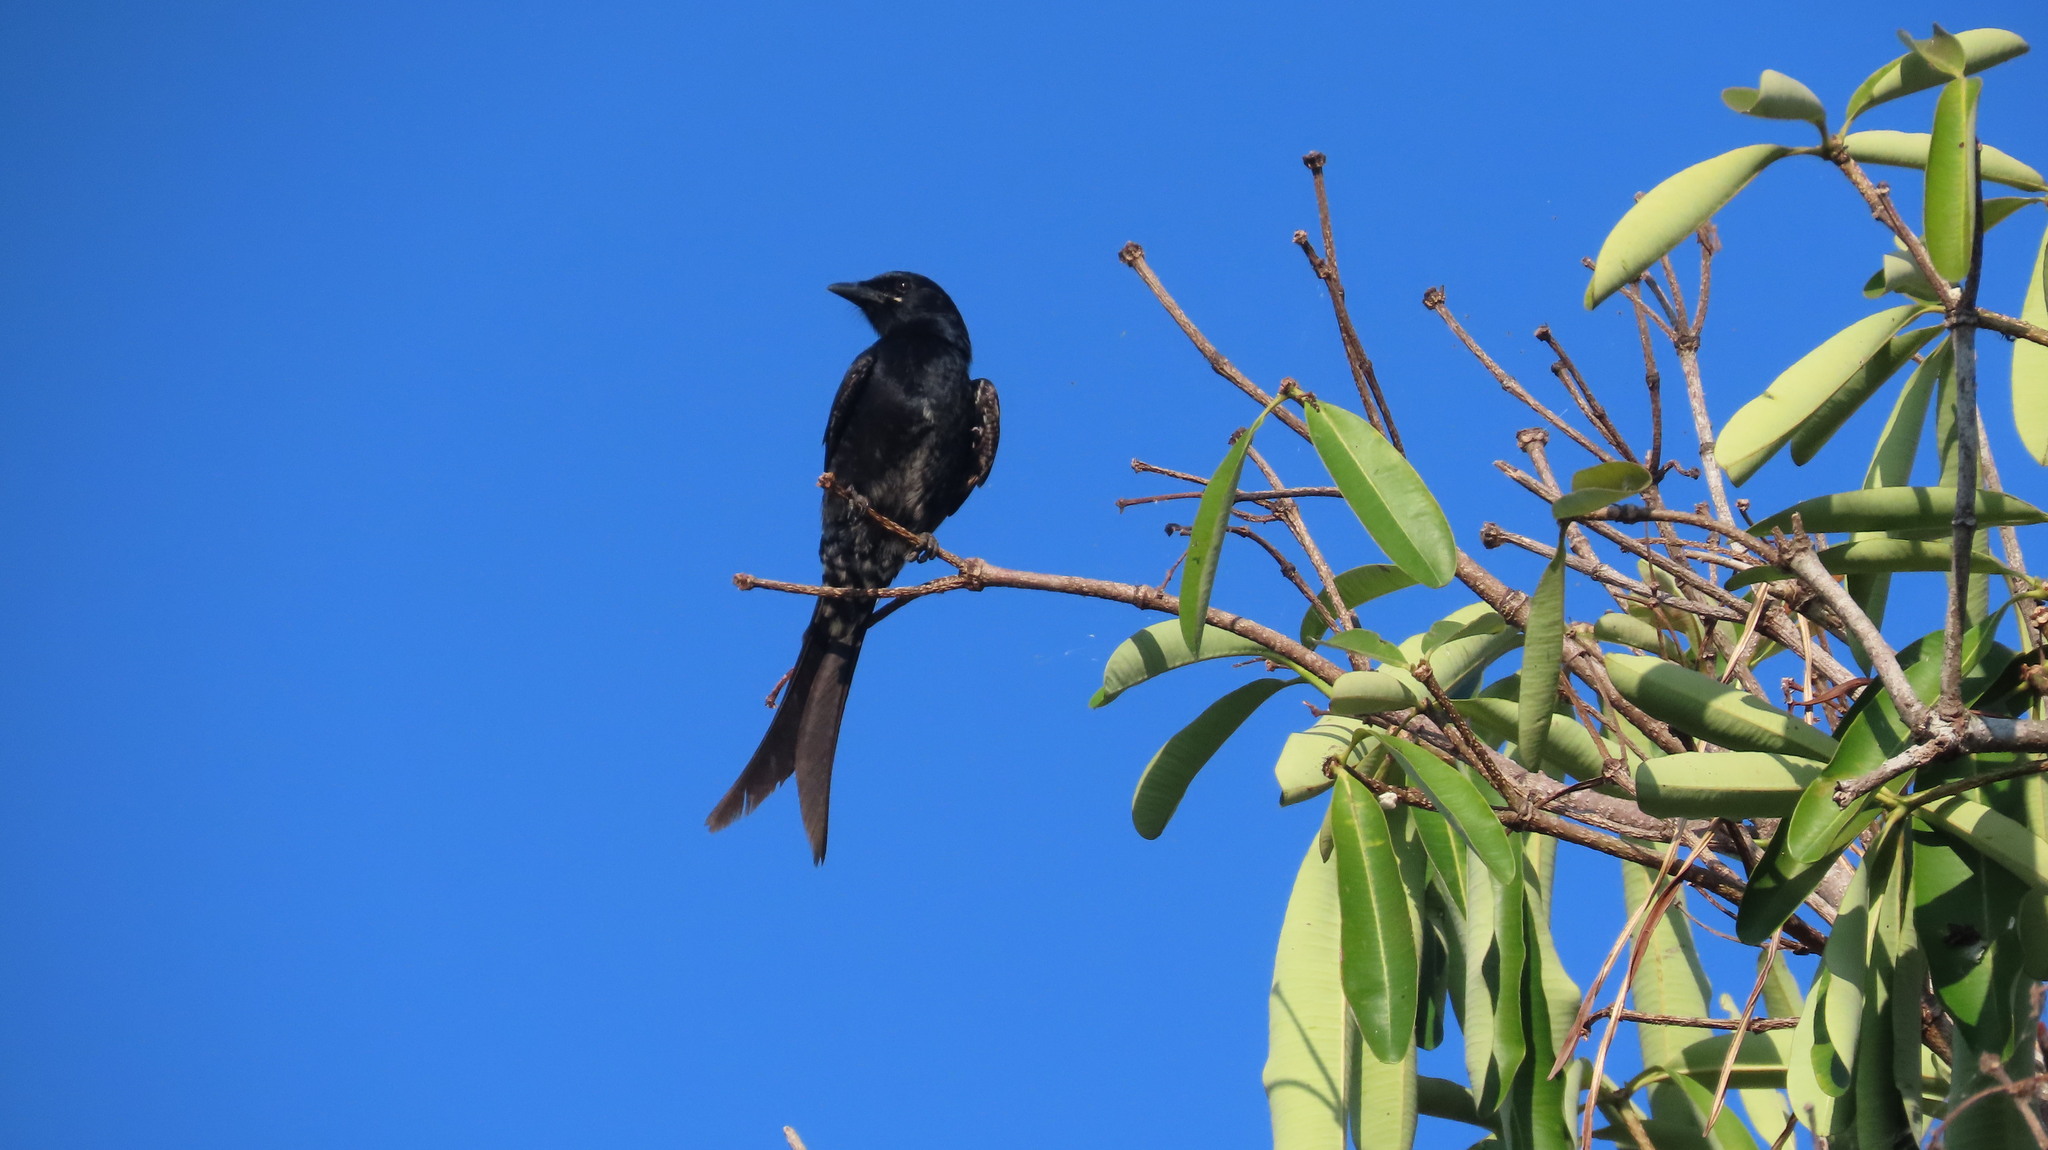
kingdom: Animalia
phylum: Chordata
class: Aves
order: Passeriformes
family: Dicruridae
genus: Dicrurus
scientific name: Dicrurus macrocercus
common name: Black drongo
